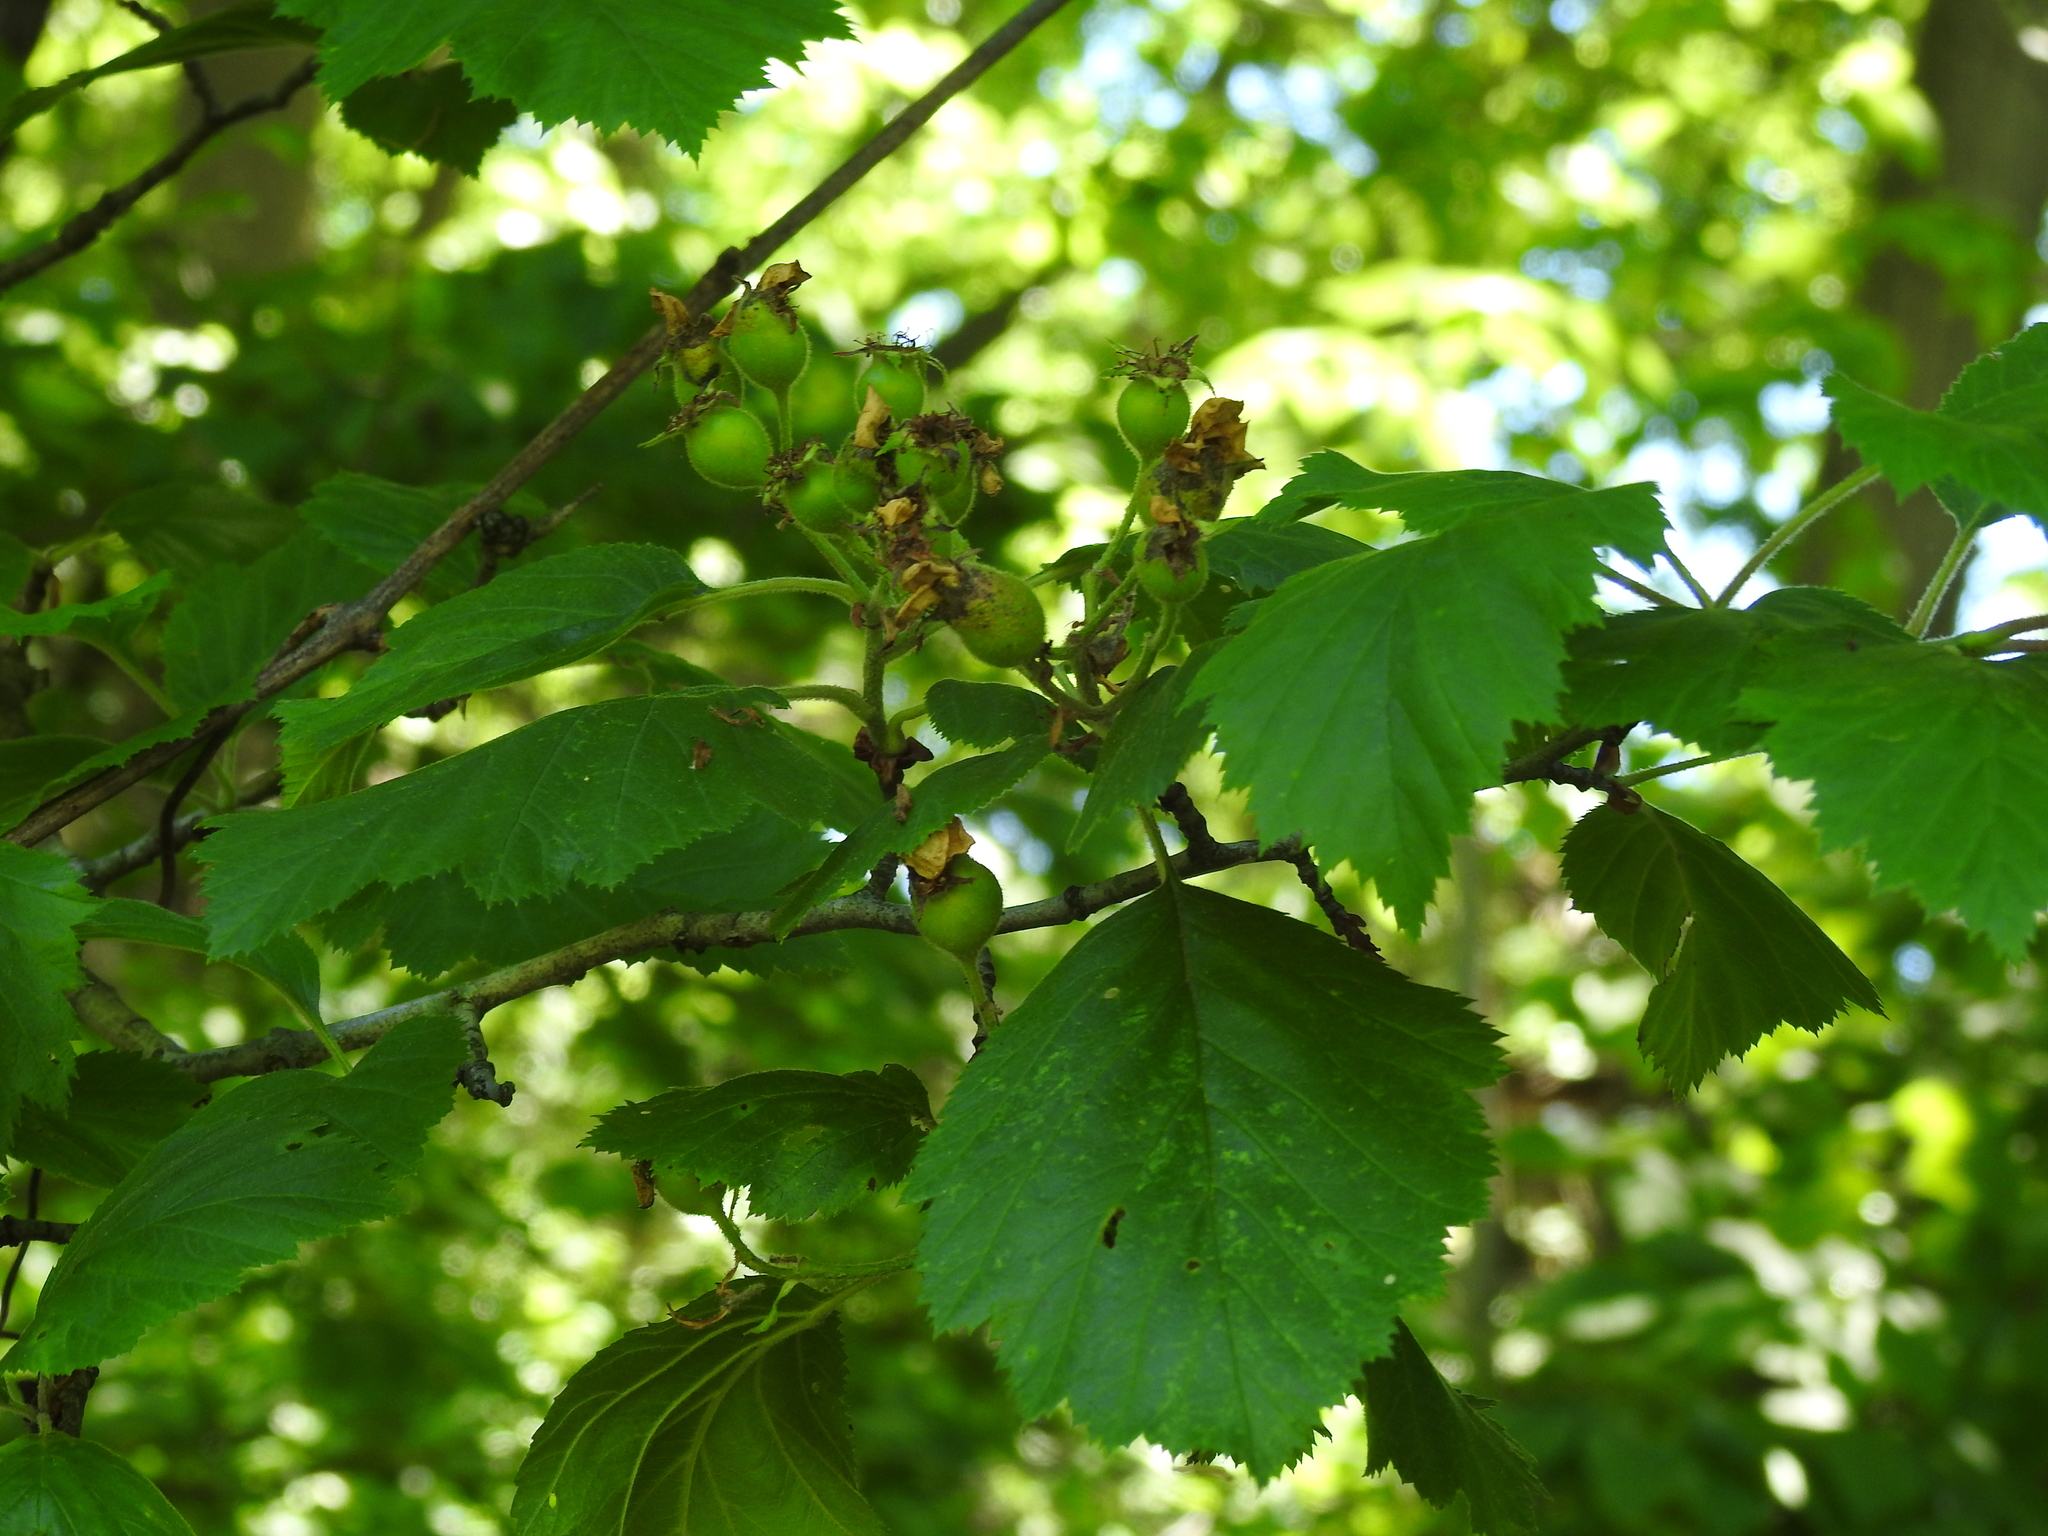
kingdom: Plantae
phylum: Tracheophyta
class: Magnoliopsida
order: Rosales
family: Rosaceae
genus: Crataegus
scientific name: Crataegus mollis
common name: Downy hawthorn
